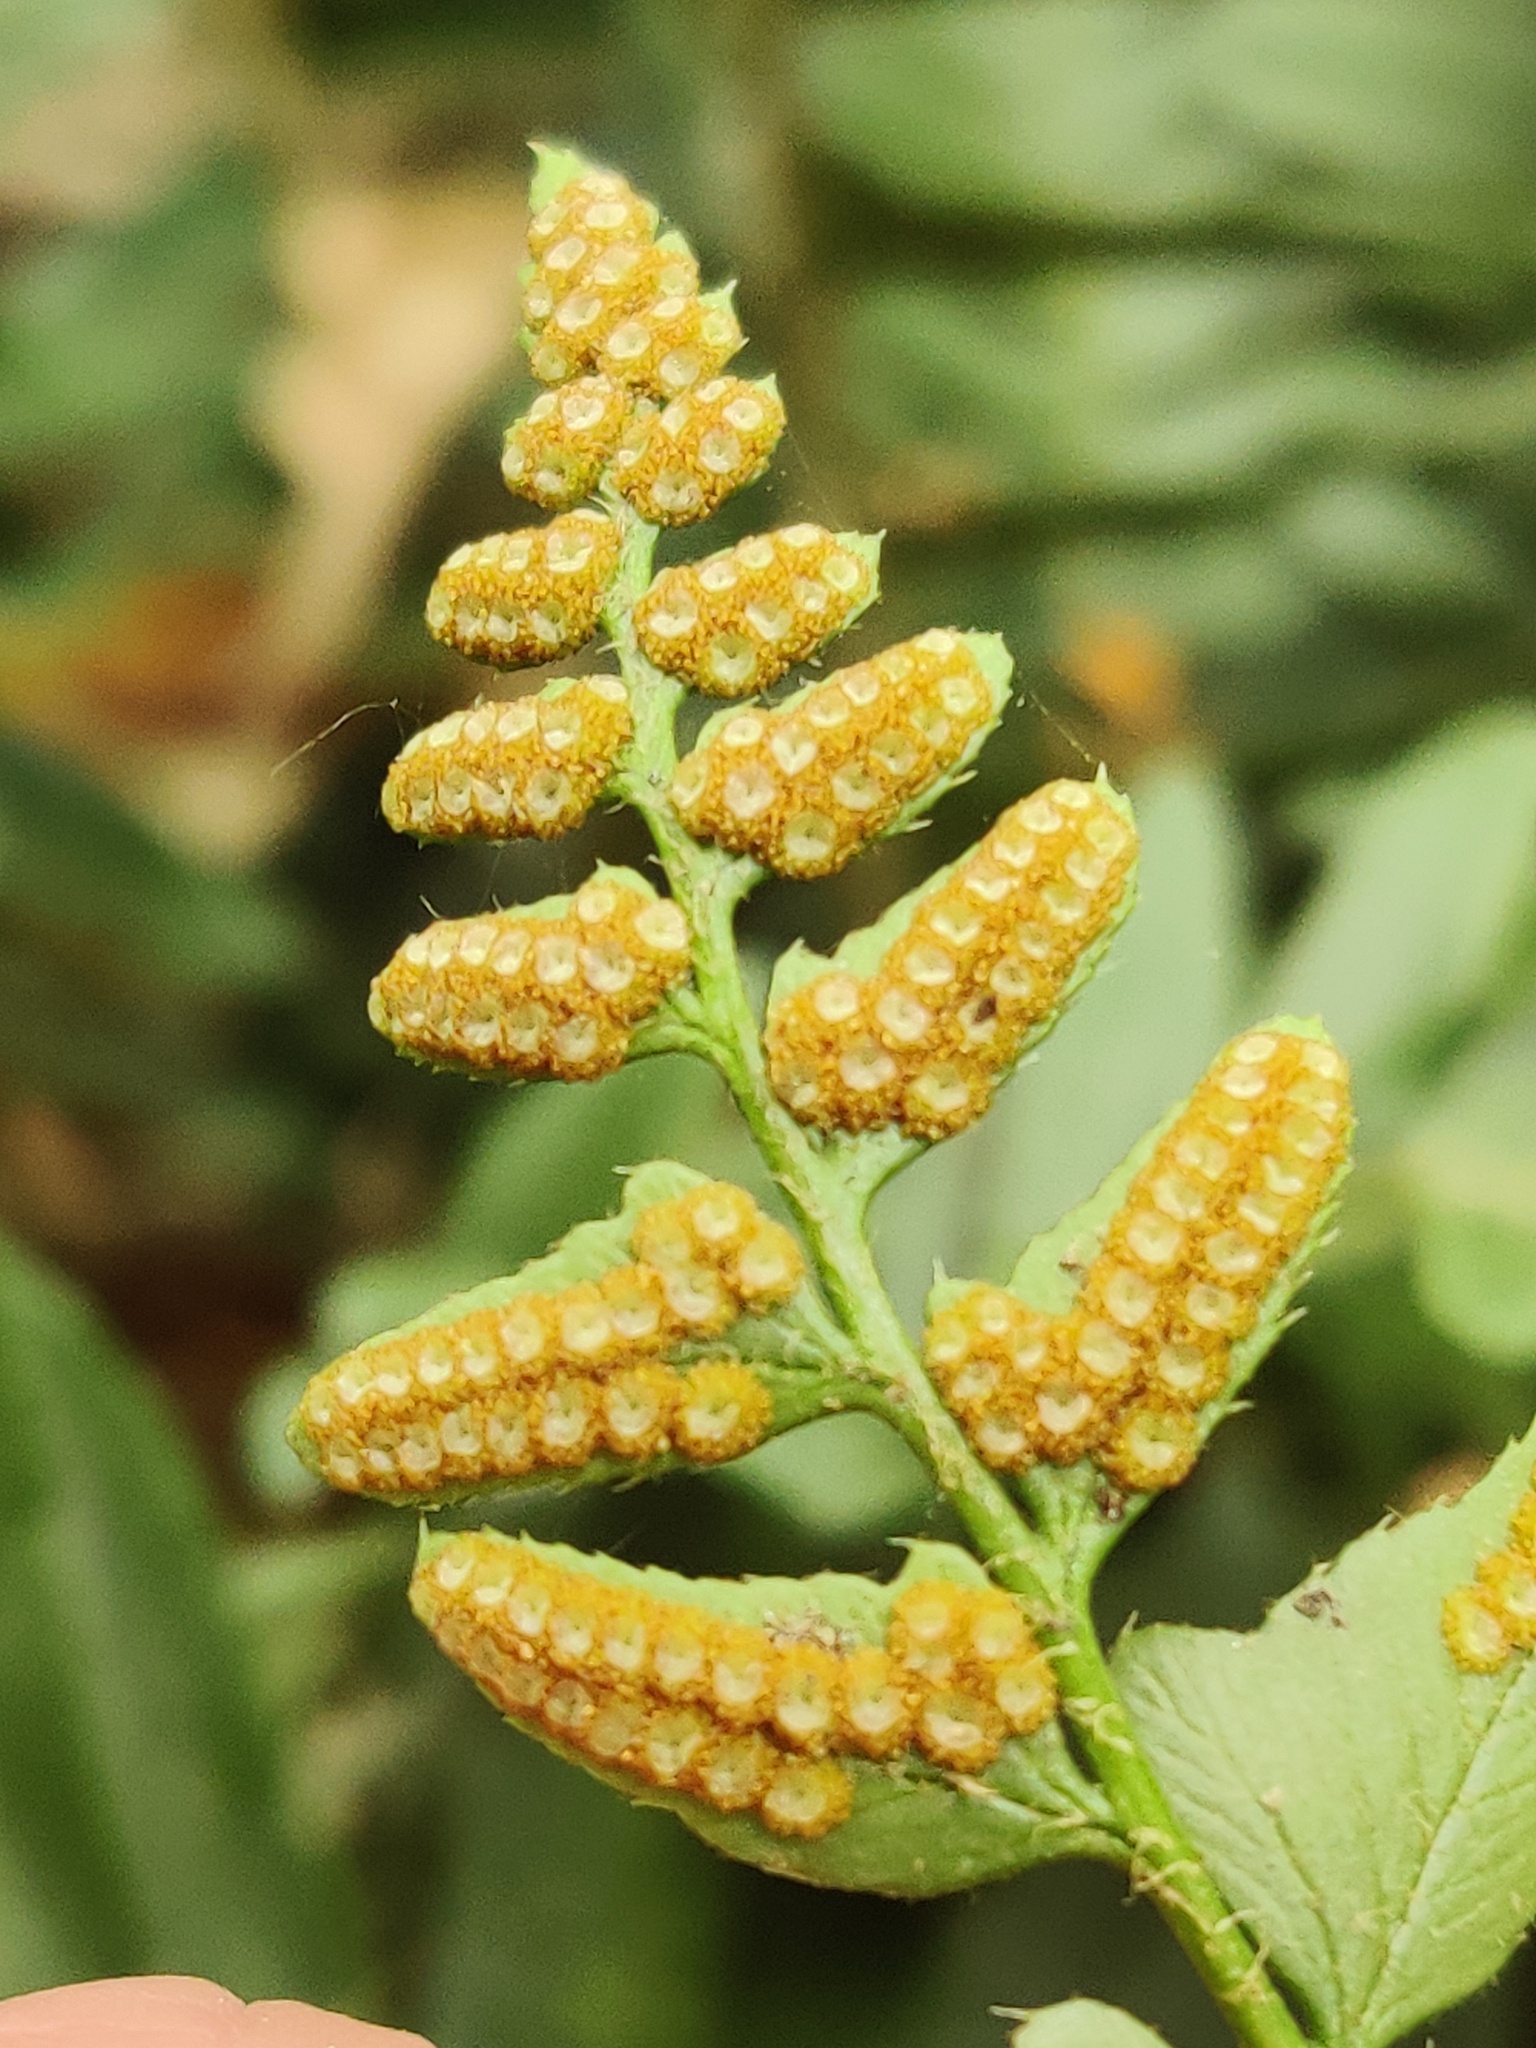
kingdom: Plantae
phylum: Tracheophyta
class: Polypodiopsida
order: Polypodiales
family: Dryopteridaceae
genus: Polystichum
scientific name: Polystichum acrostichoides
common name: Christmas fern
